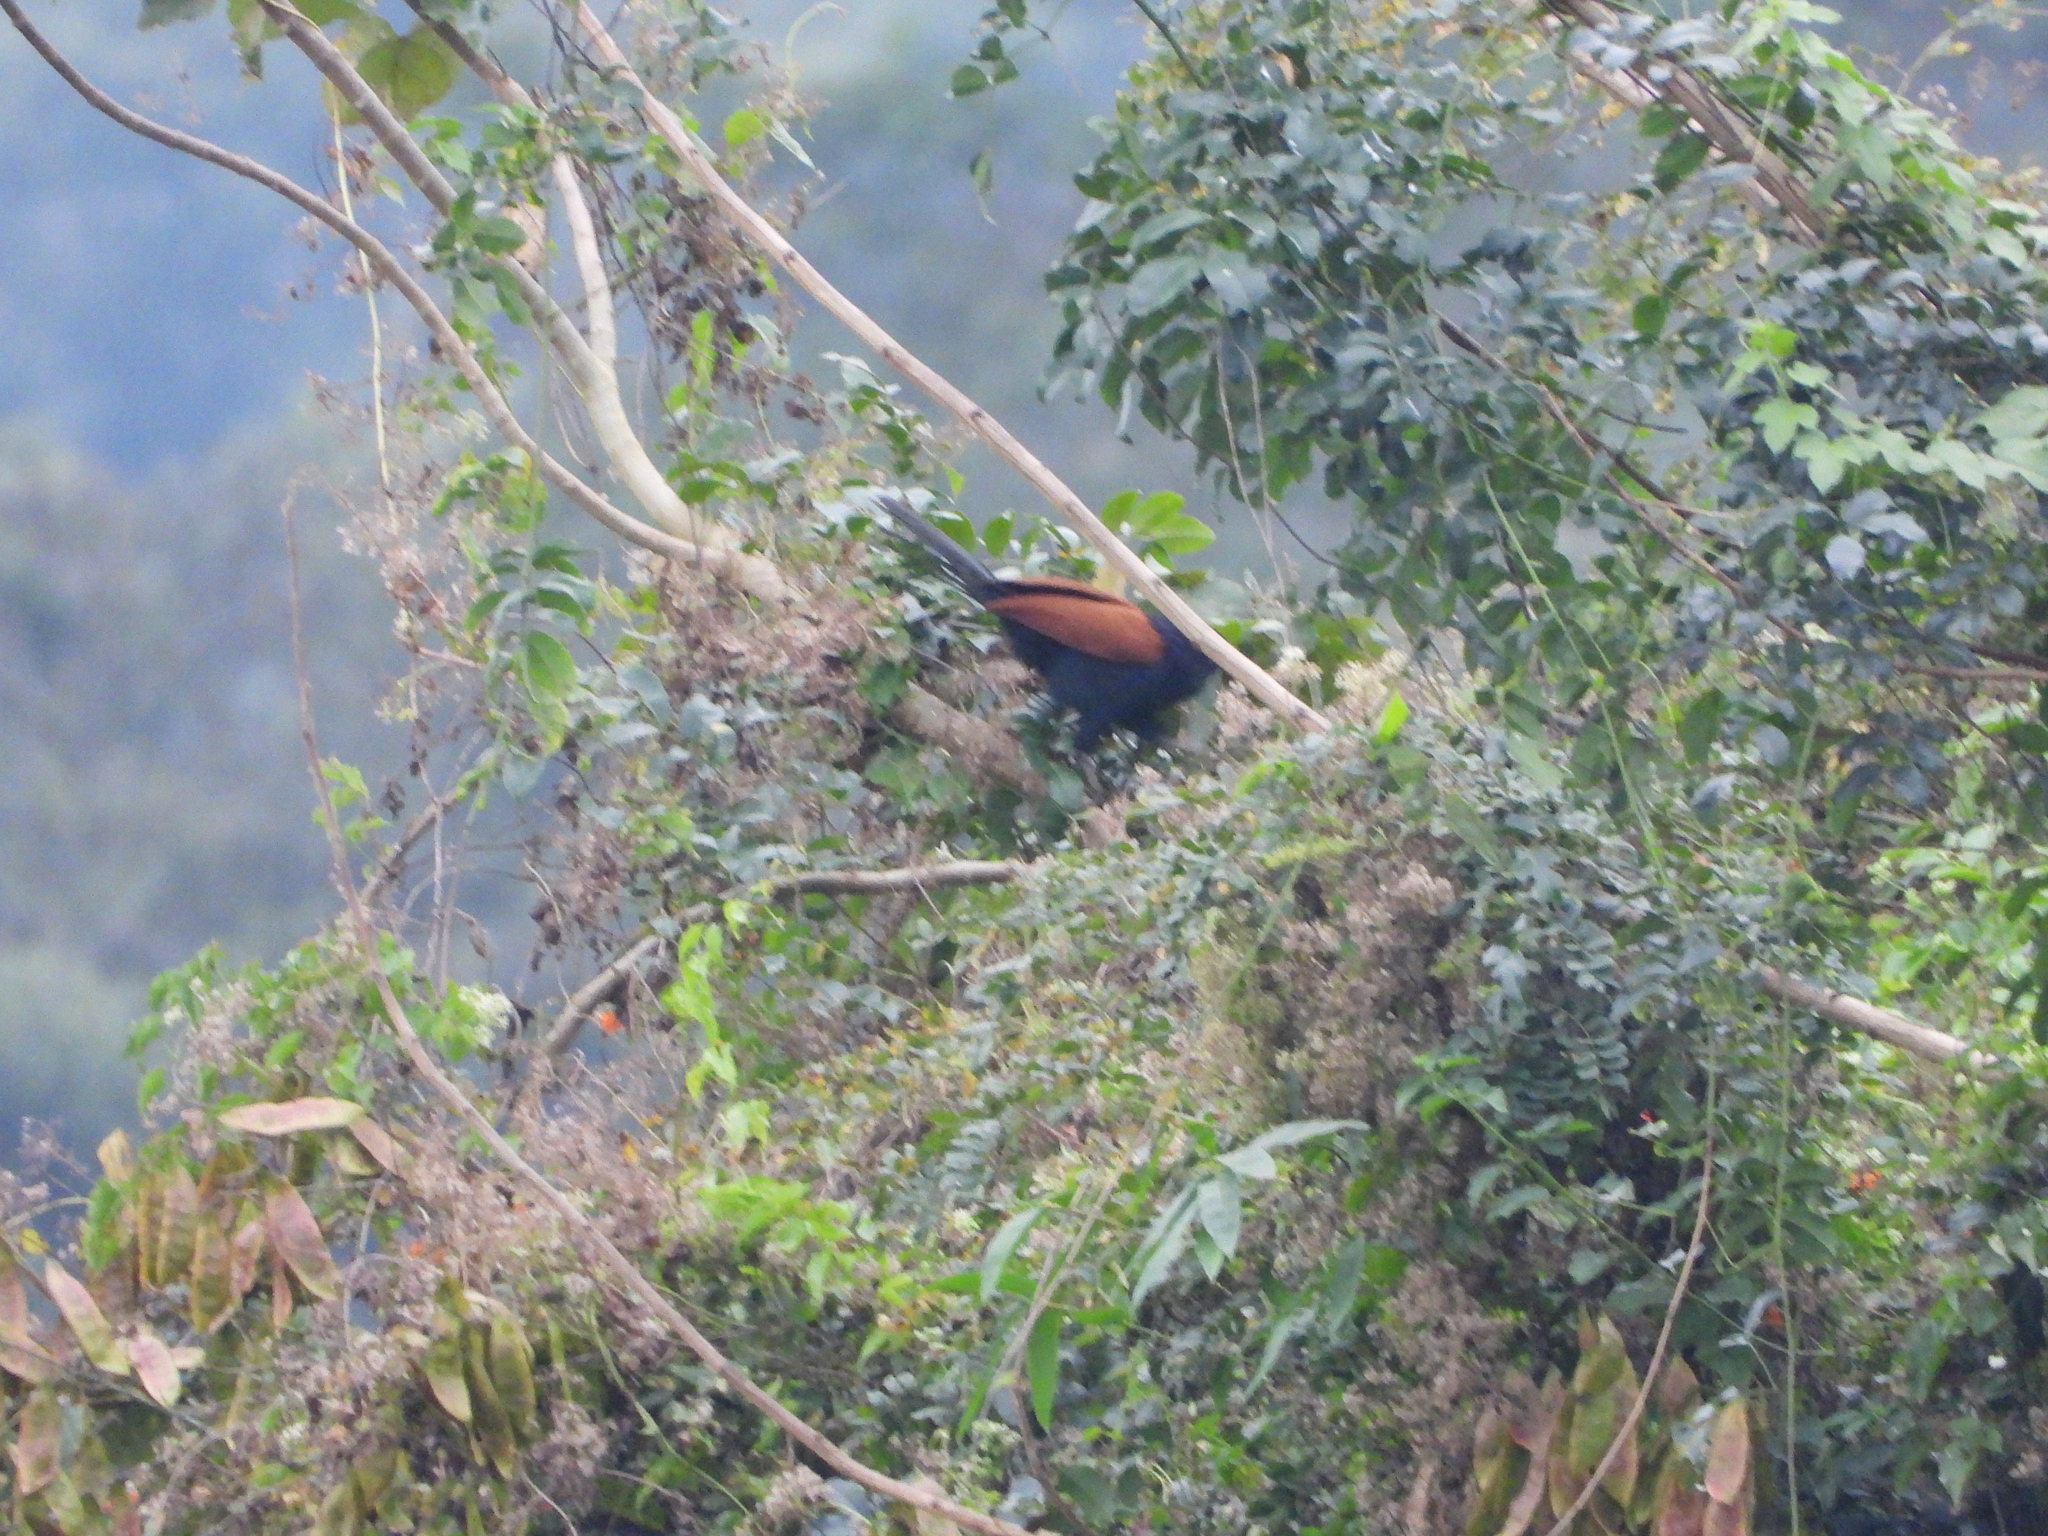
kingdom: Animalia
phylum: Chordata
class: Aves
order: Cuculiformes
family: Cuculidae
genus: Centropus
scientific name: Centropus sinensis
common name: Greater coucal
